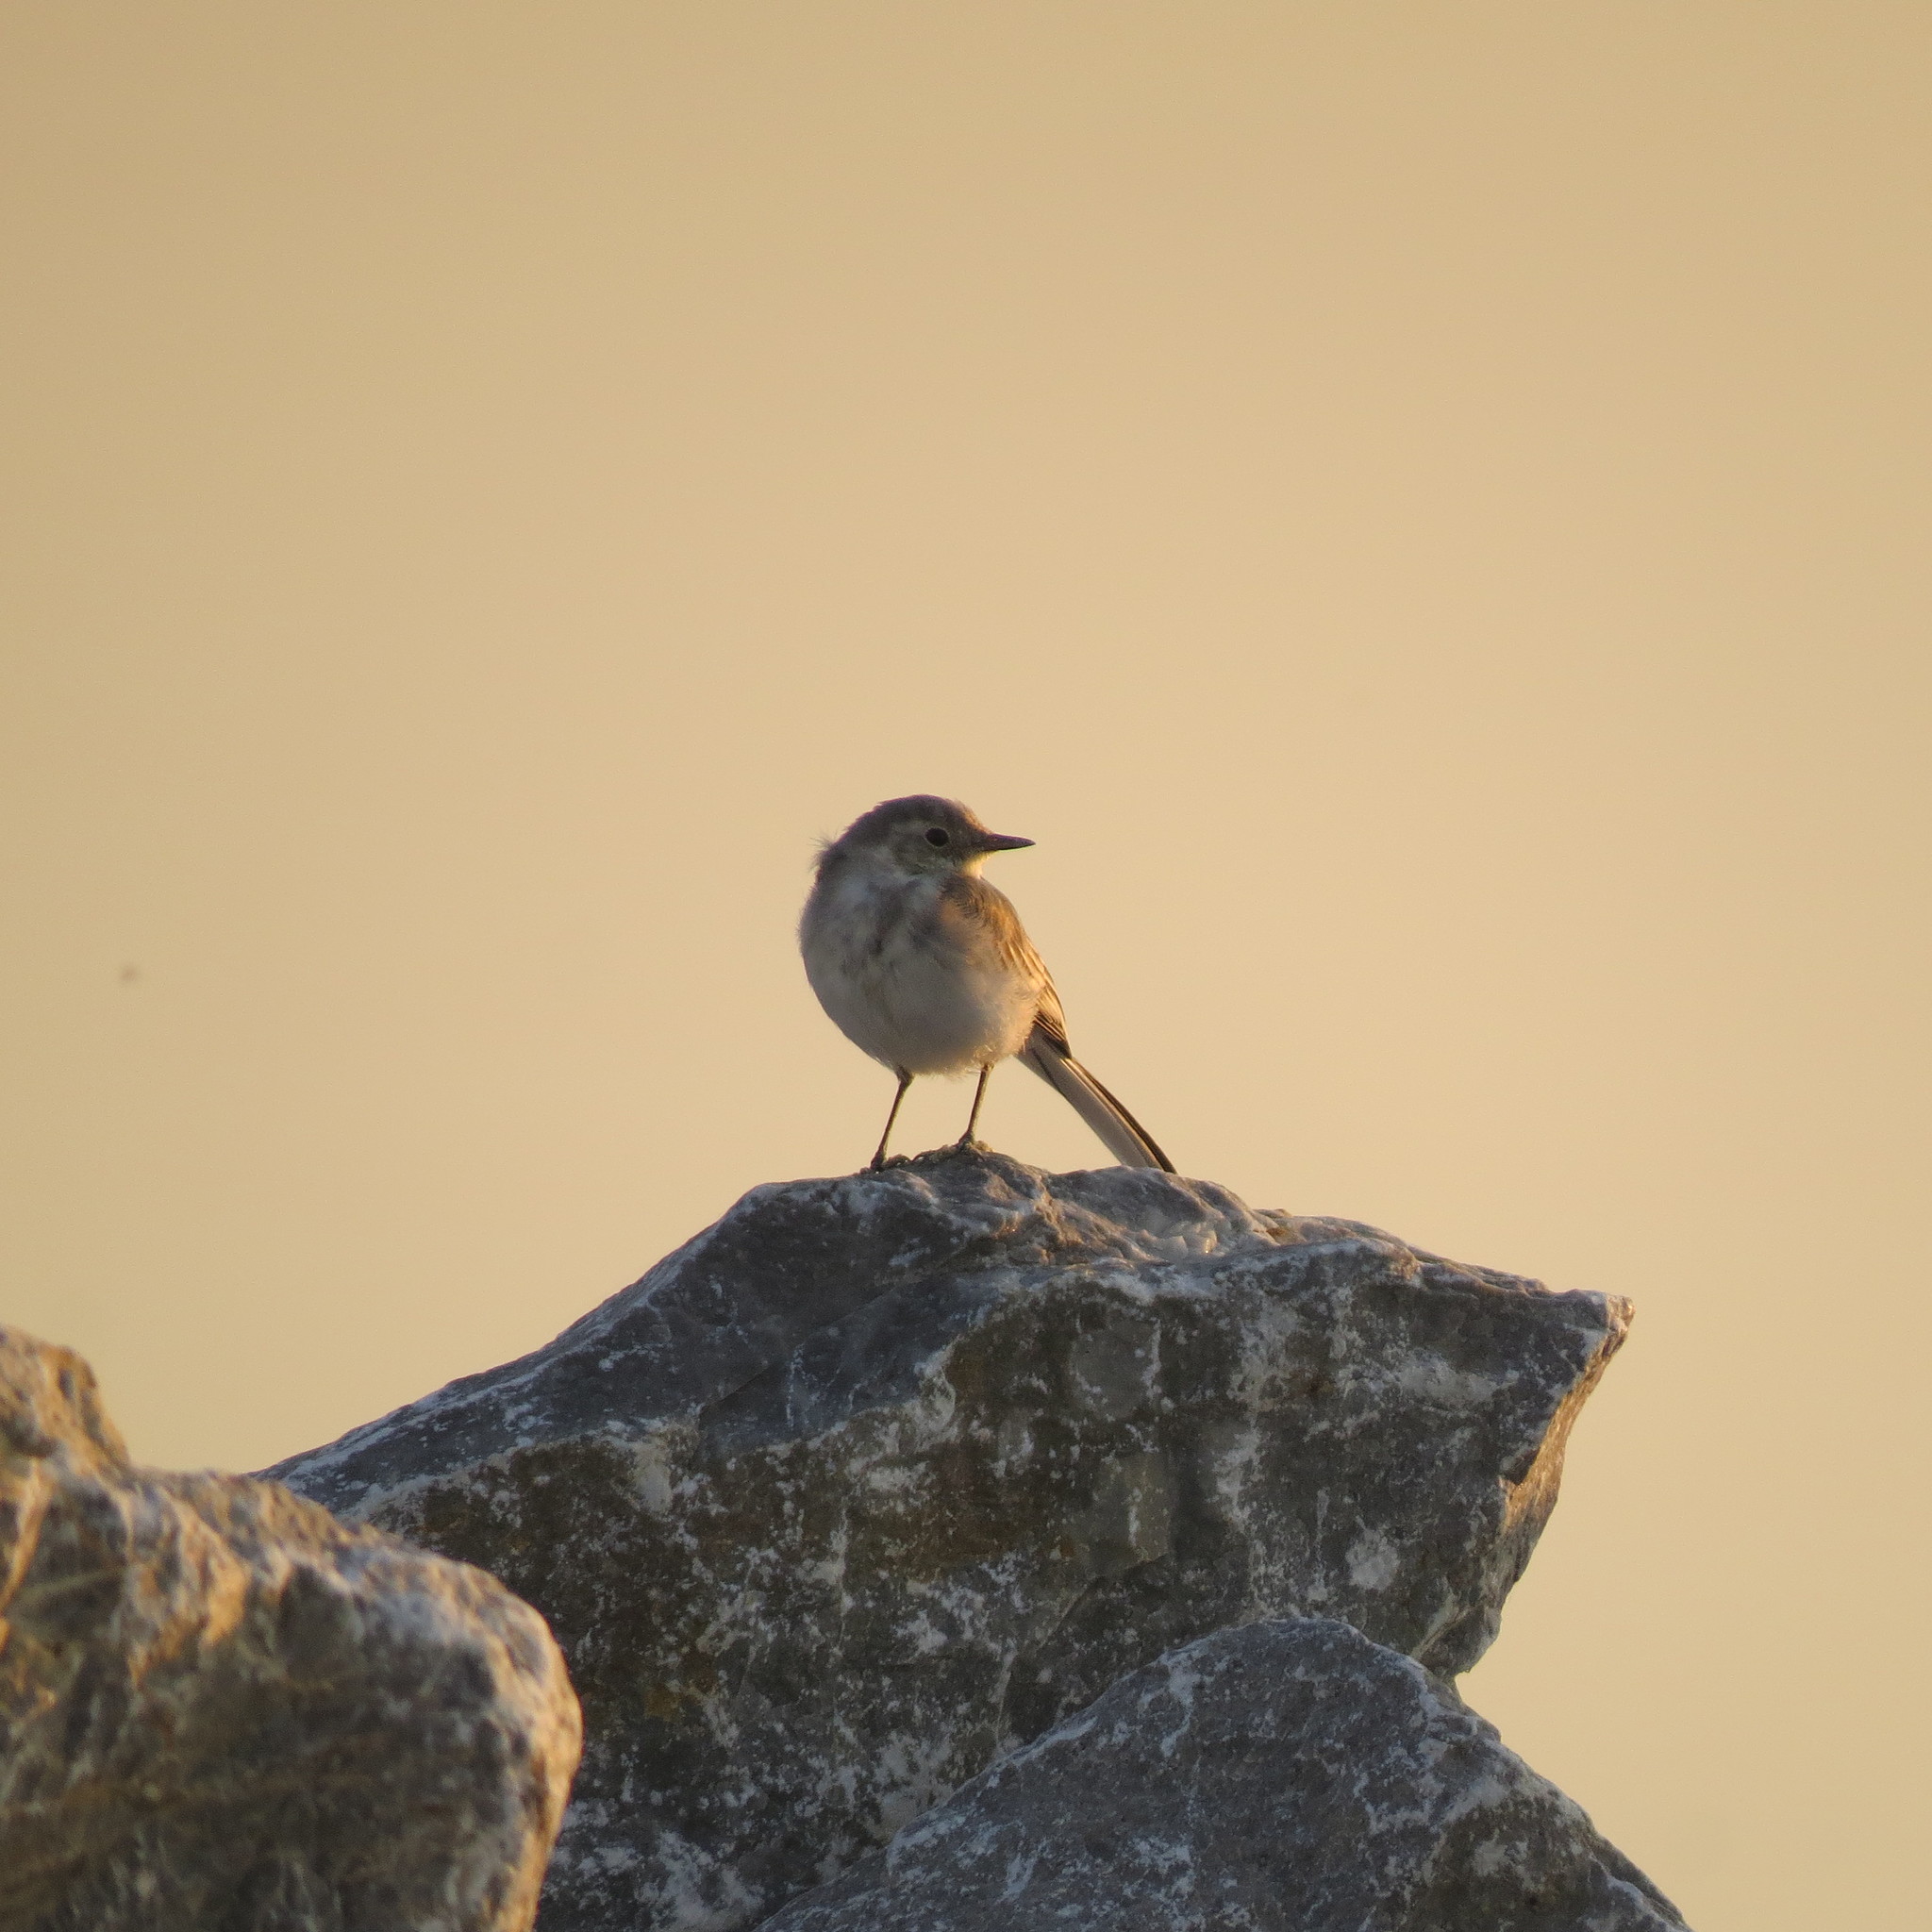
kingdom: Animalia
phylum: Chordata
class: Aves
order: Passeriformes
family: Motacillidae
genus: Motacilla
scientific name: Motacilla alba
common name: White wagtail
